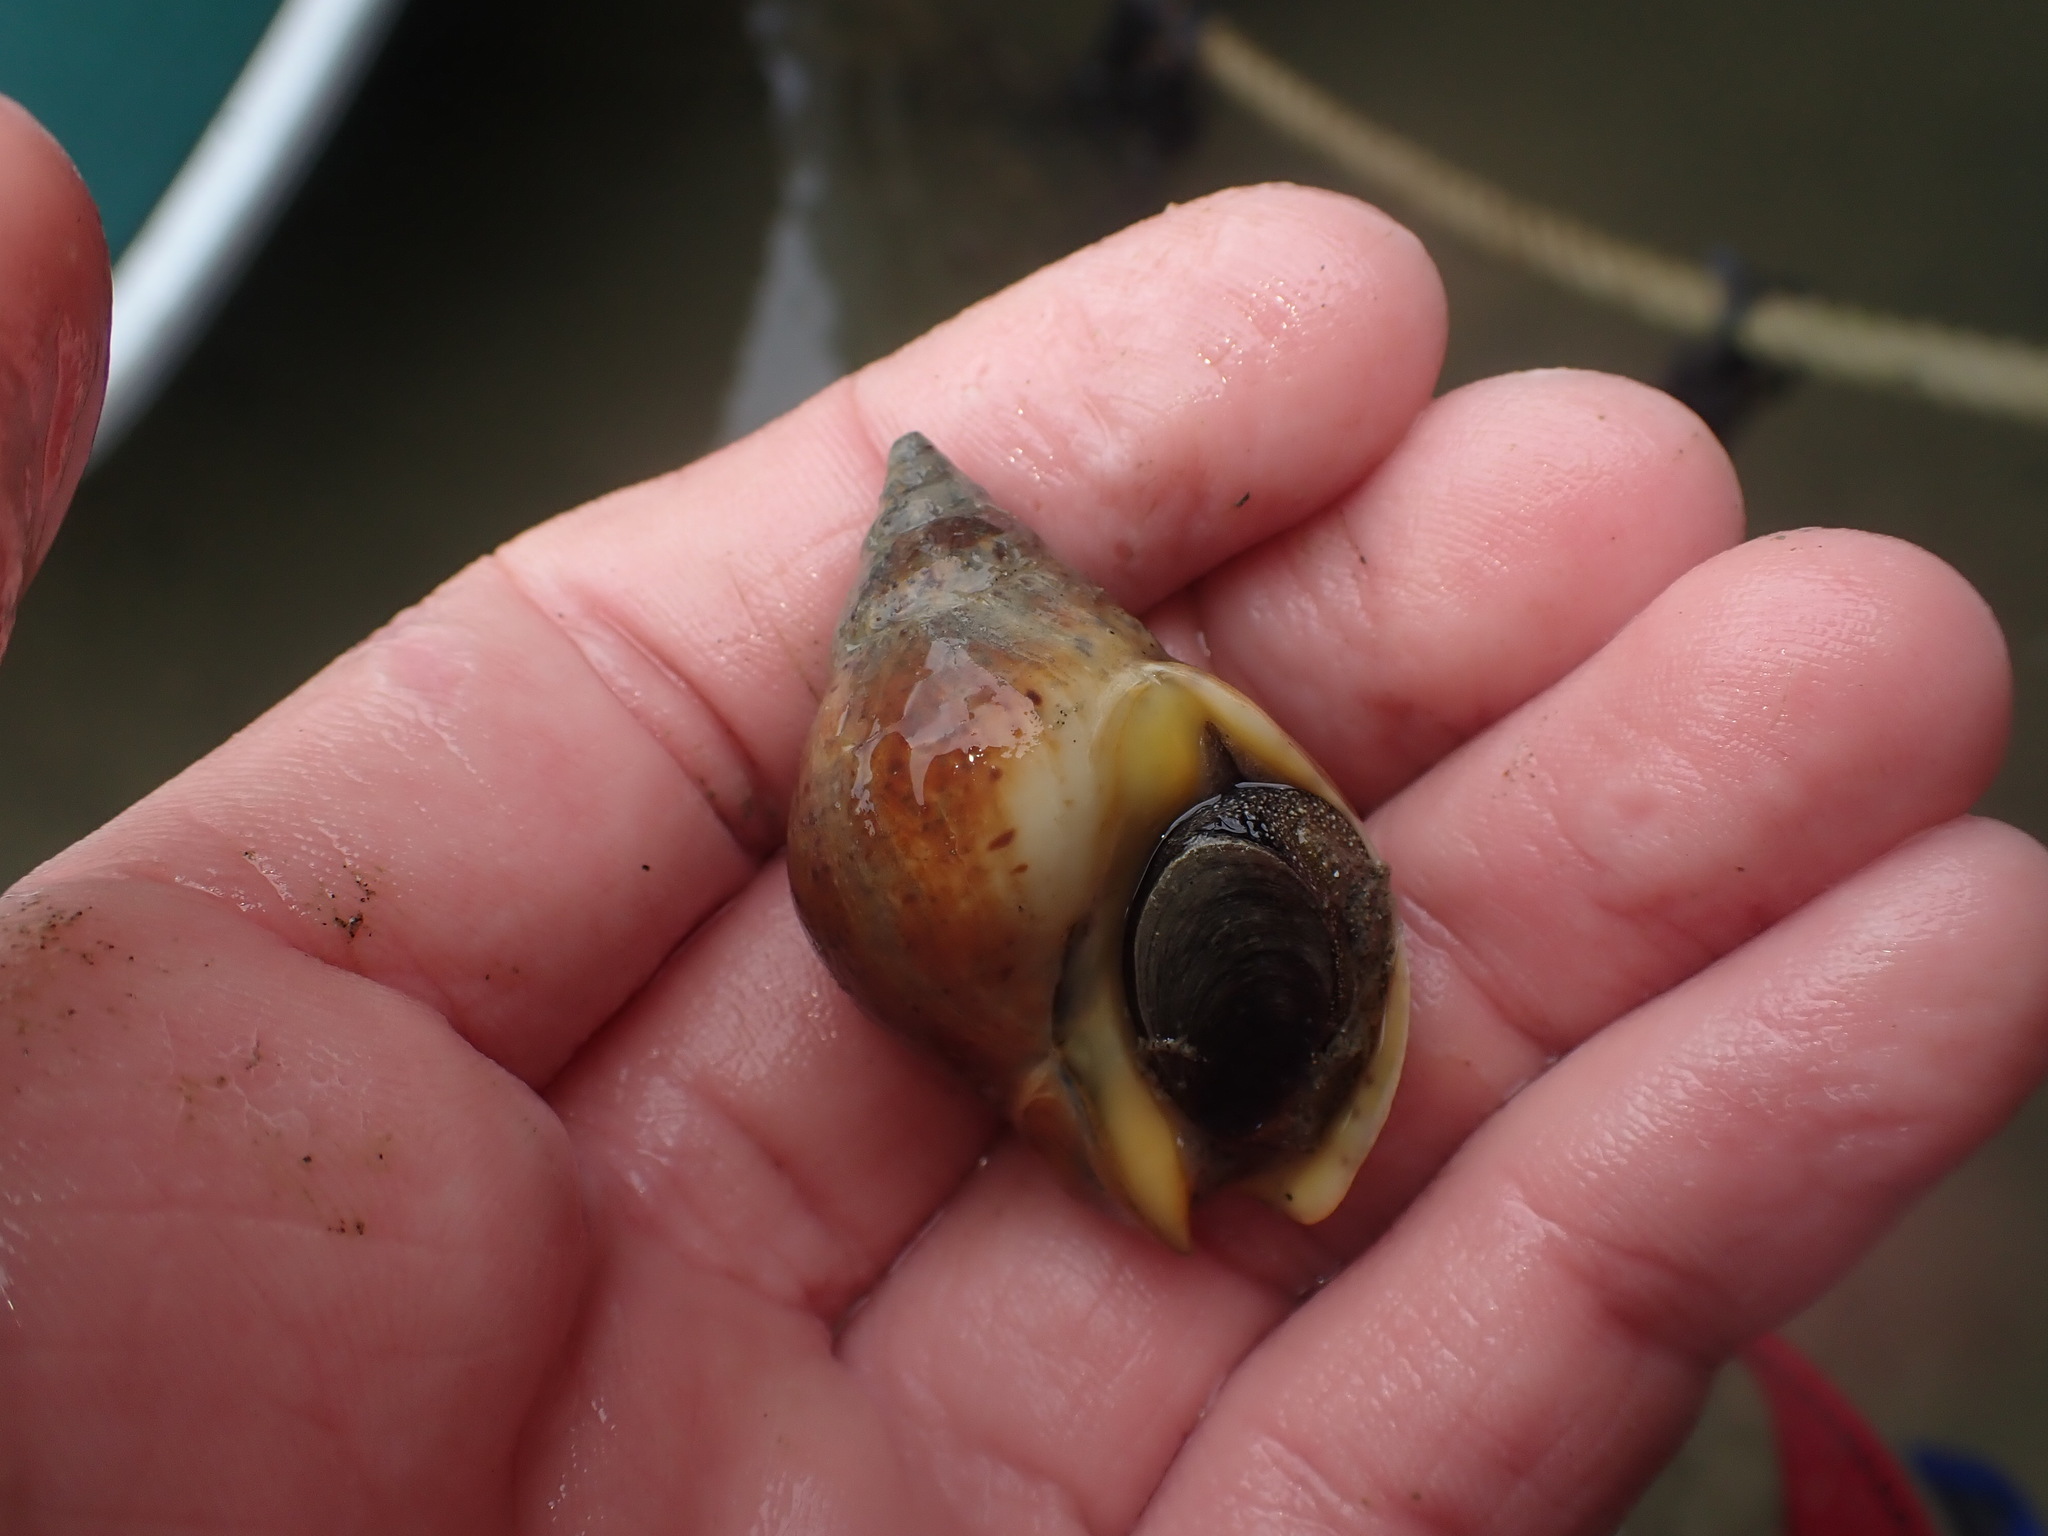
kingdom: Animalia
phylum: Mollusca
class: Gastropoda
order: Neogastropoda
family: Cominellidae
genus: Cominella
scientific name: Cominella adspersa
